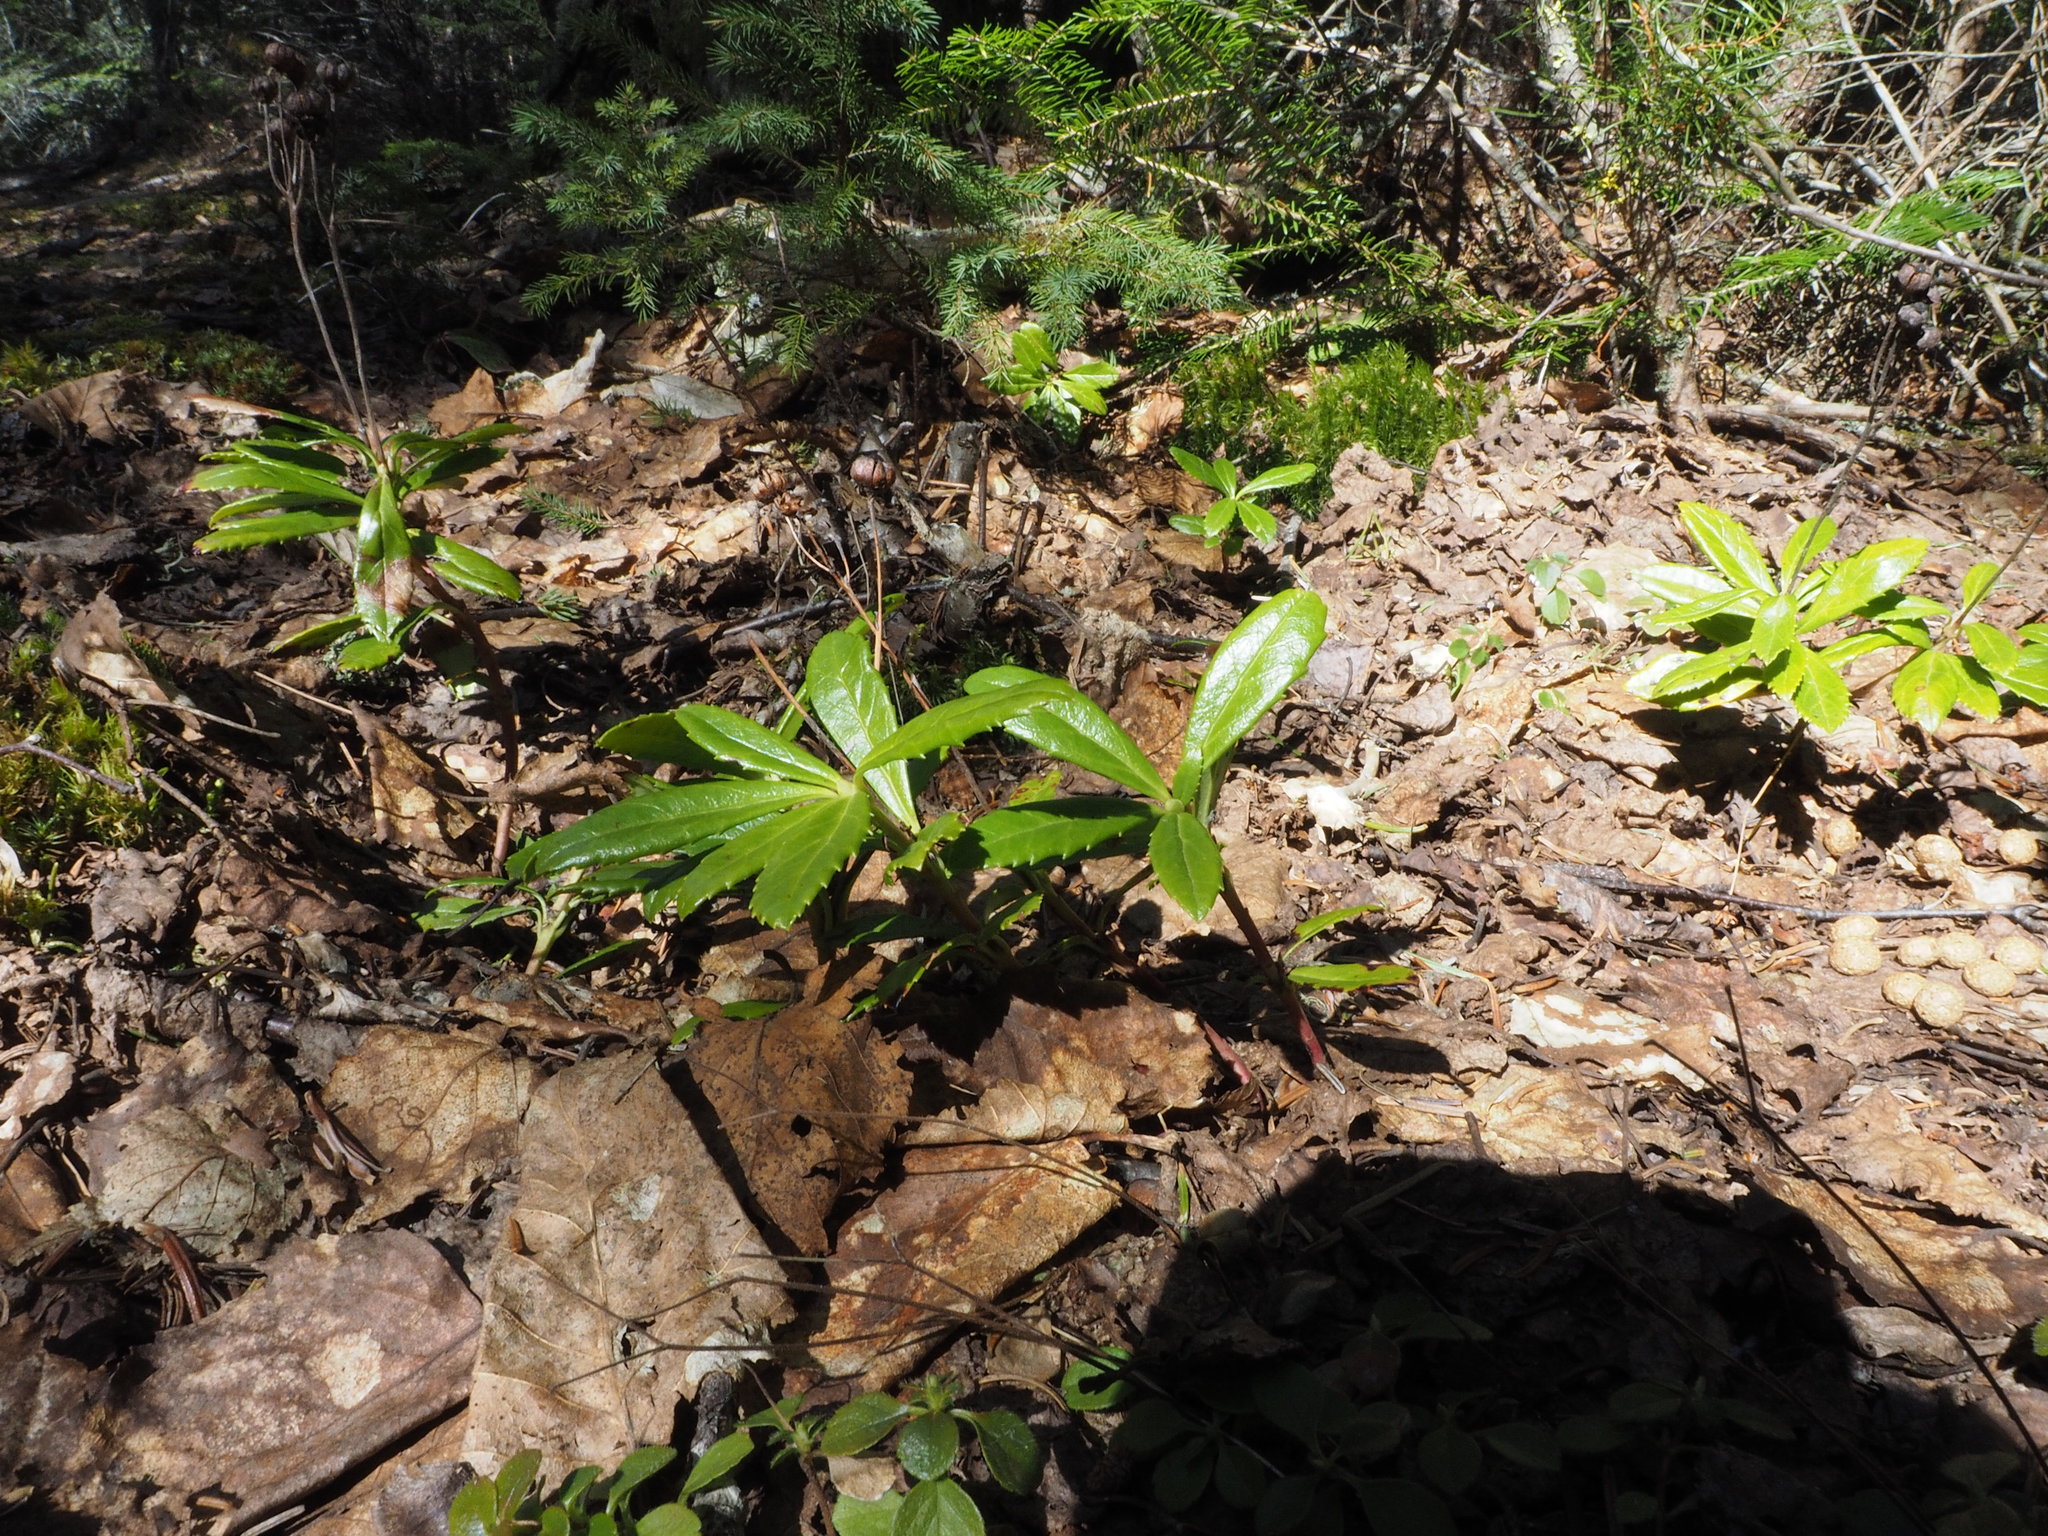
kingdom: Plantae
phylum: Tracheophyta
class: Magnoliopsida
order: Ericales
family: Ericaceae
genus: Chimaphila
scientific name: Chimaphila umbellata
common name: Pipsissewa
